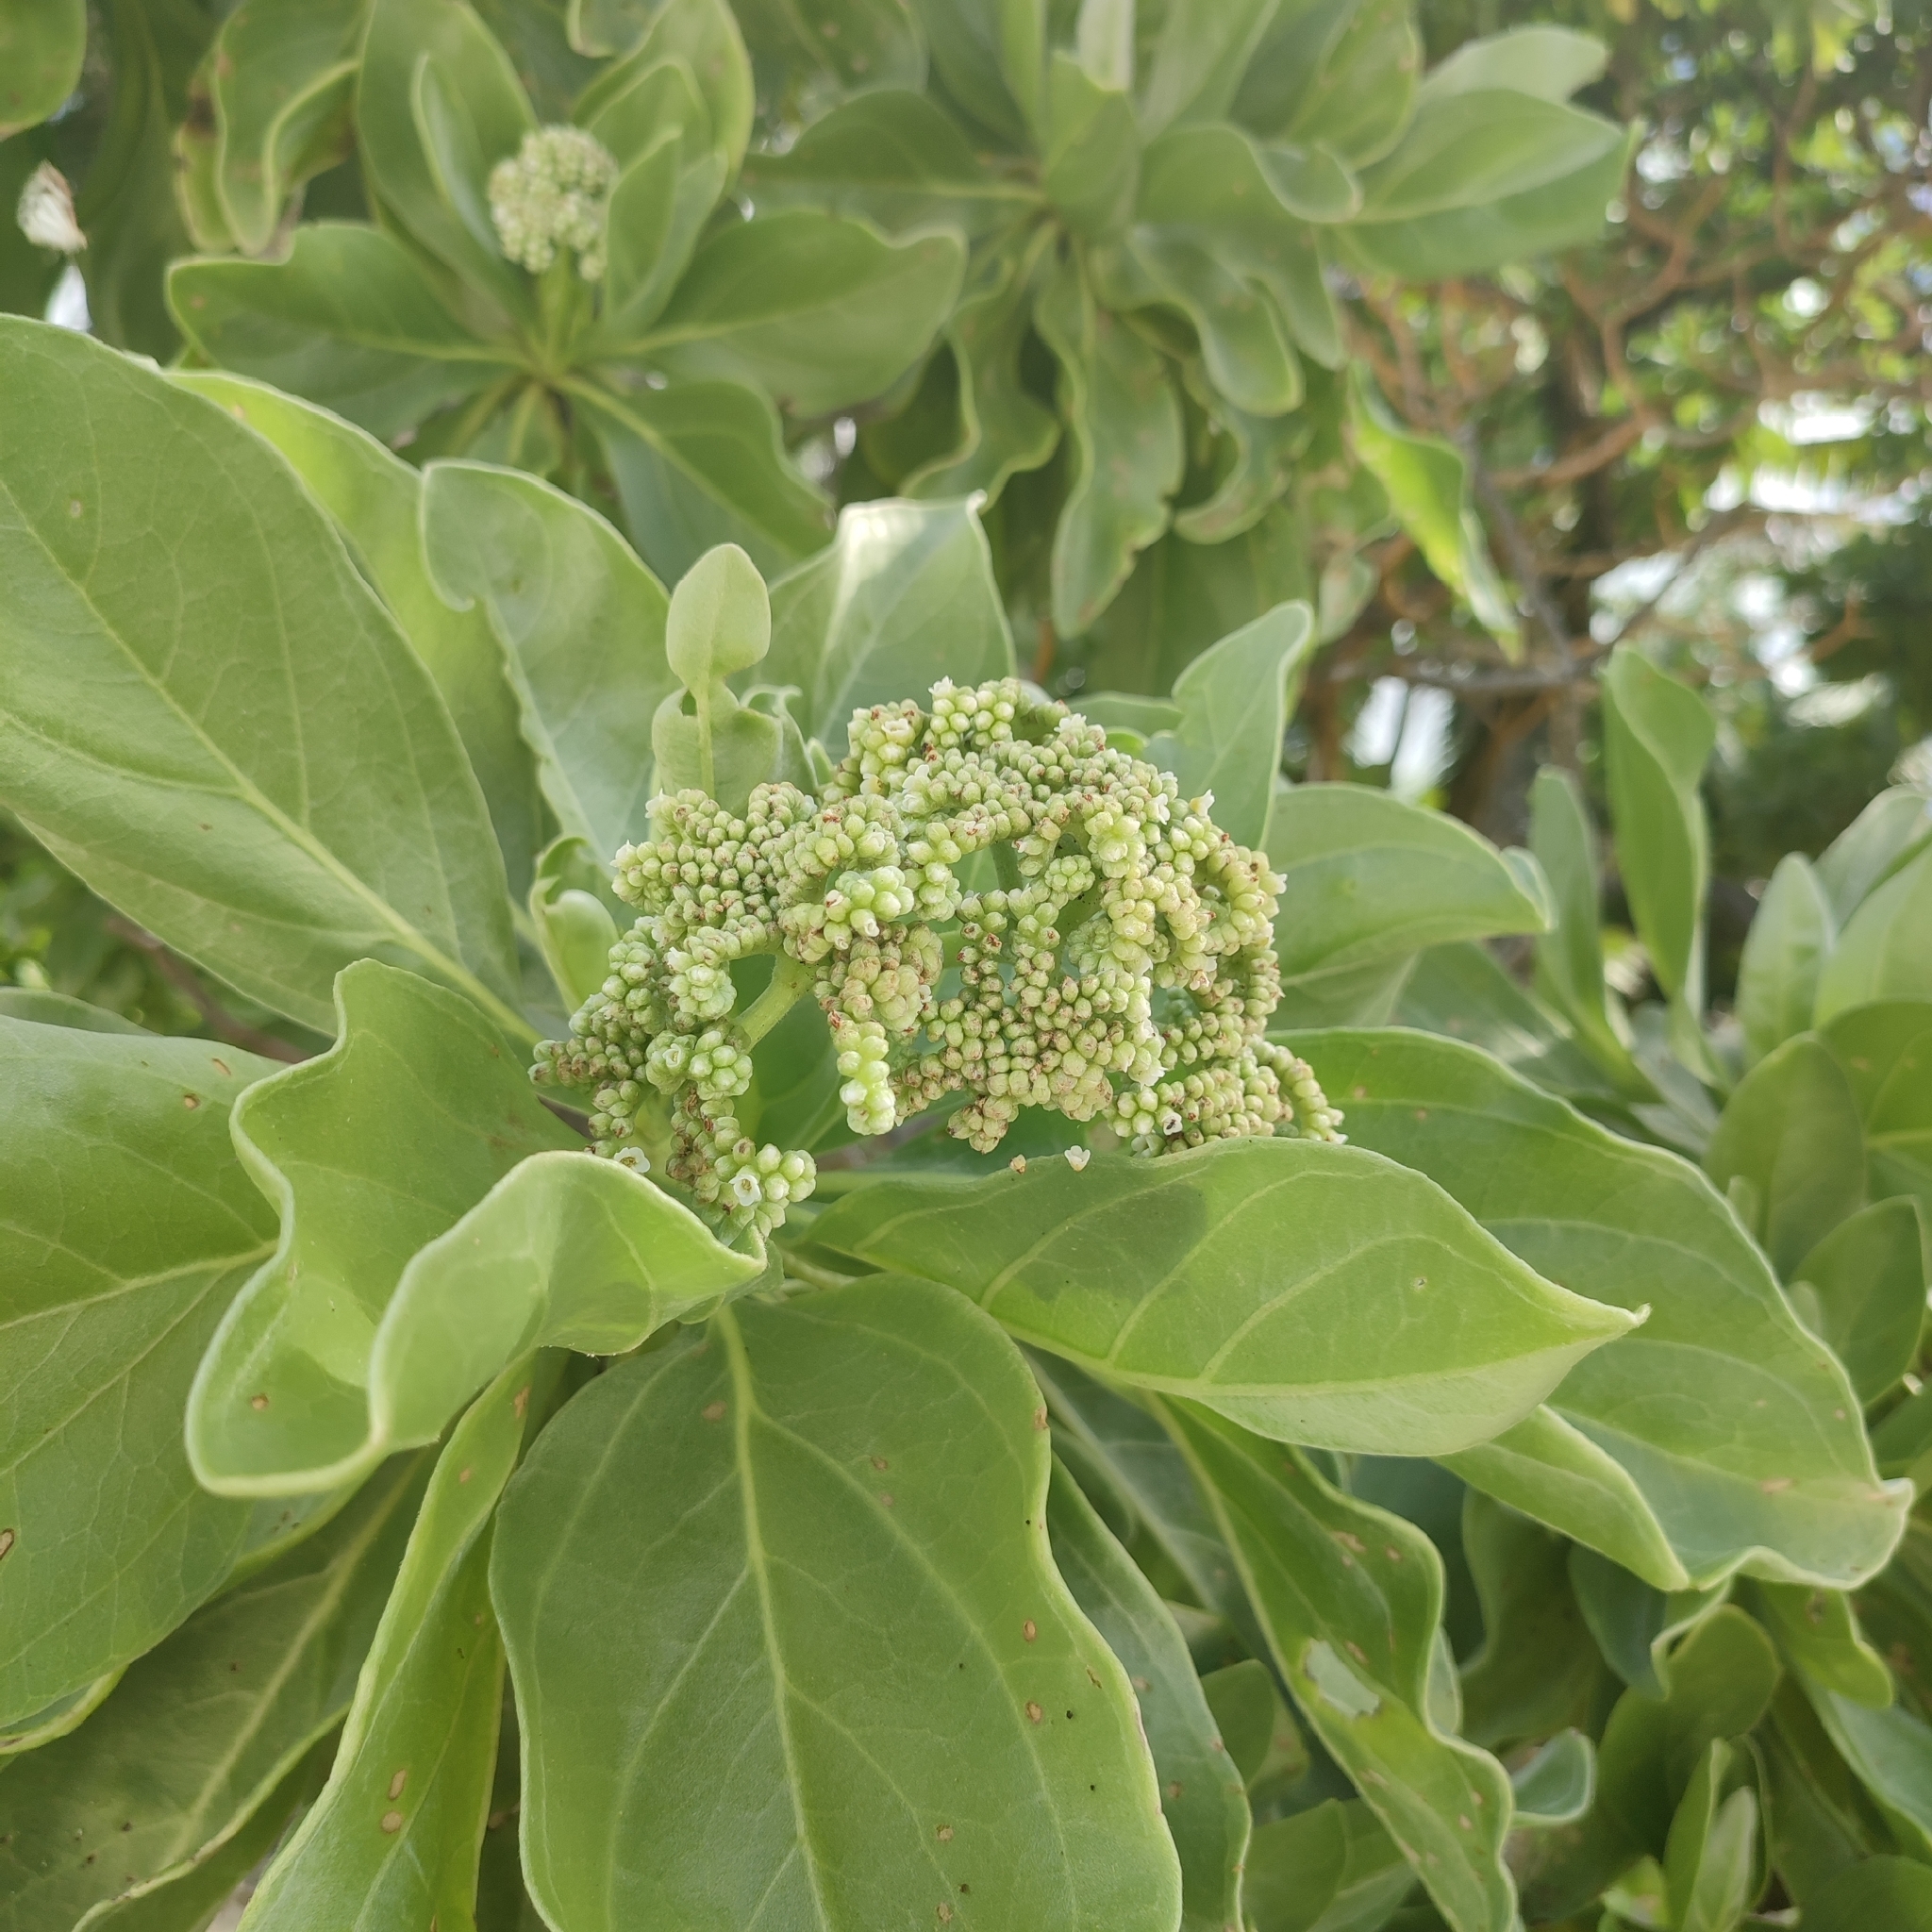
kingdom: Plantae
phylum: Tracheophyta
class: Magnoliopsida
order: Boraginales
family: Heliotropiaceae
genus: Heliotropium
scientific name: Heliotropium velutinum
